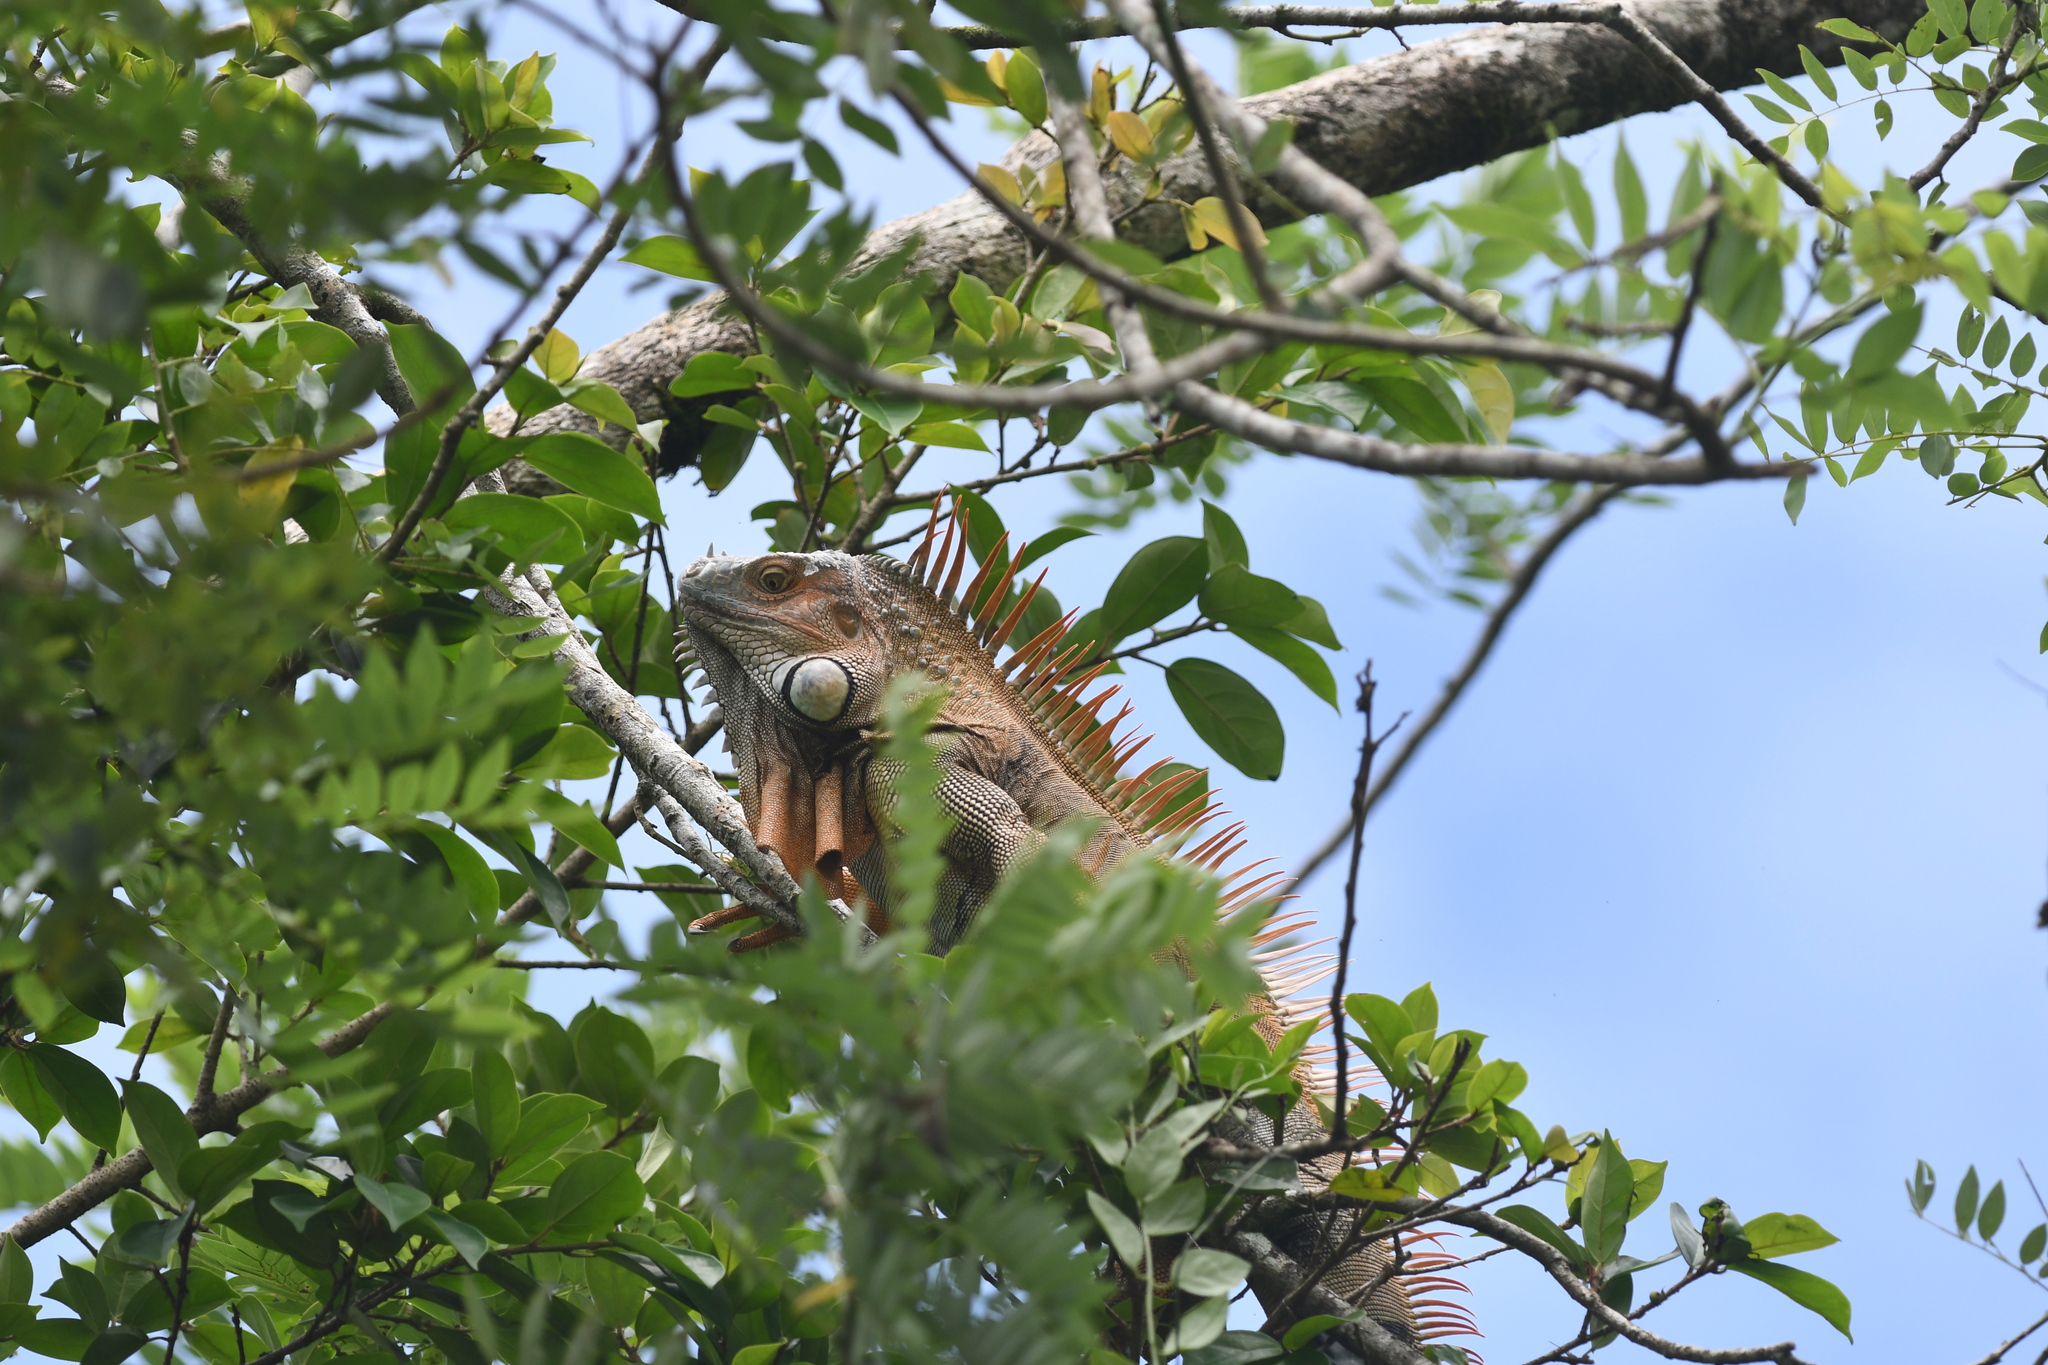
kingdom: Animalia
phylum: Chordata
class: Squamata
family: Iguanidae
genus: Iguana
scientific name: Iguana iguana
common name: Green iguana
